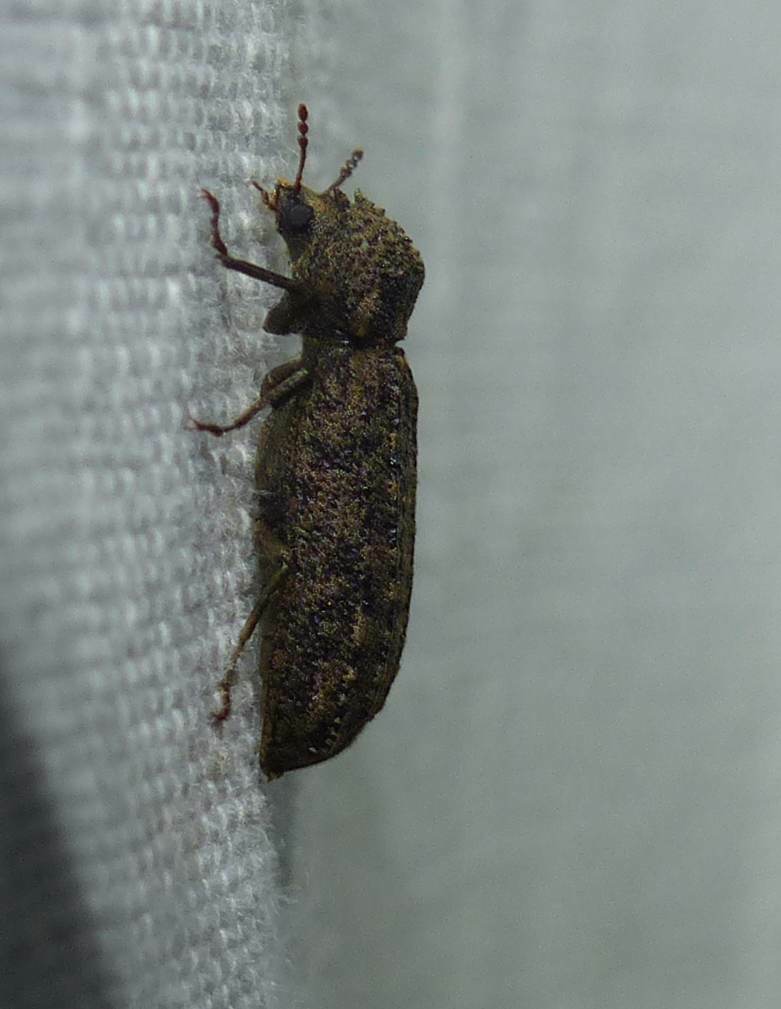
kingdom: Animalia
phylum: Arthropoda
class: Insecta
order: Coleoptera
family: Bostrichidae
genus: Lichenophanes
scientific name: Lichenophanes bicornis
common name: Two-horned powder-post beetle
